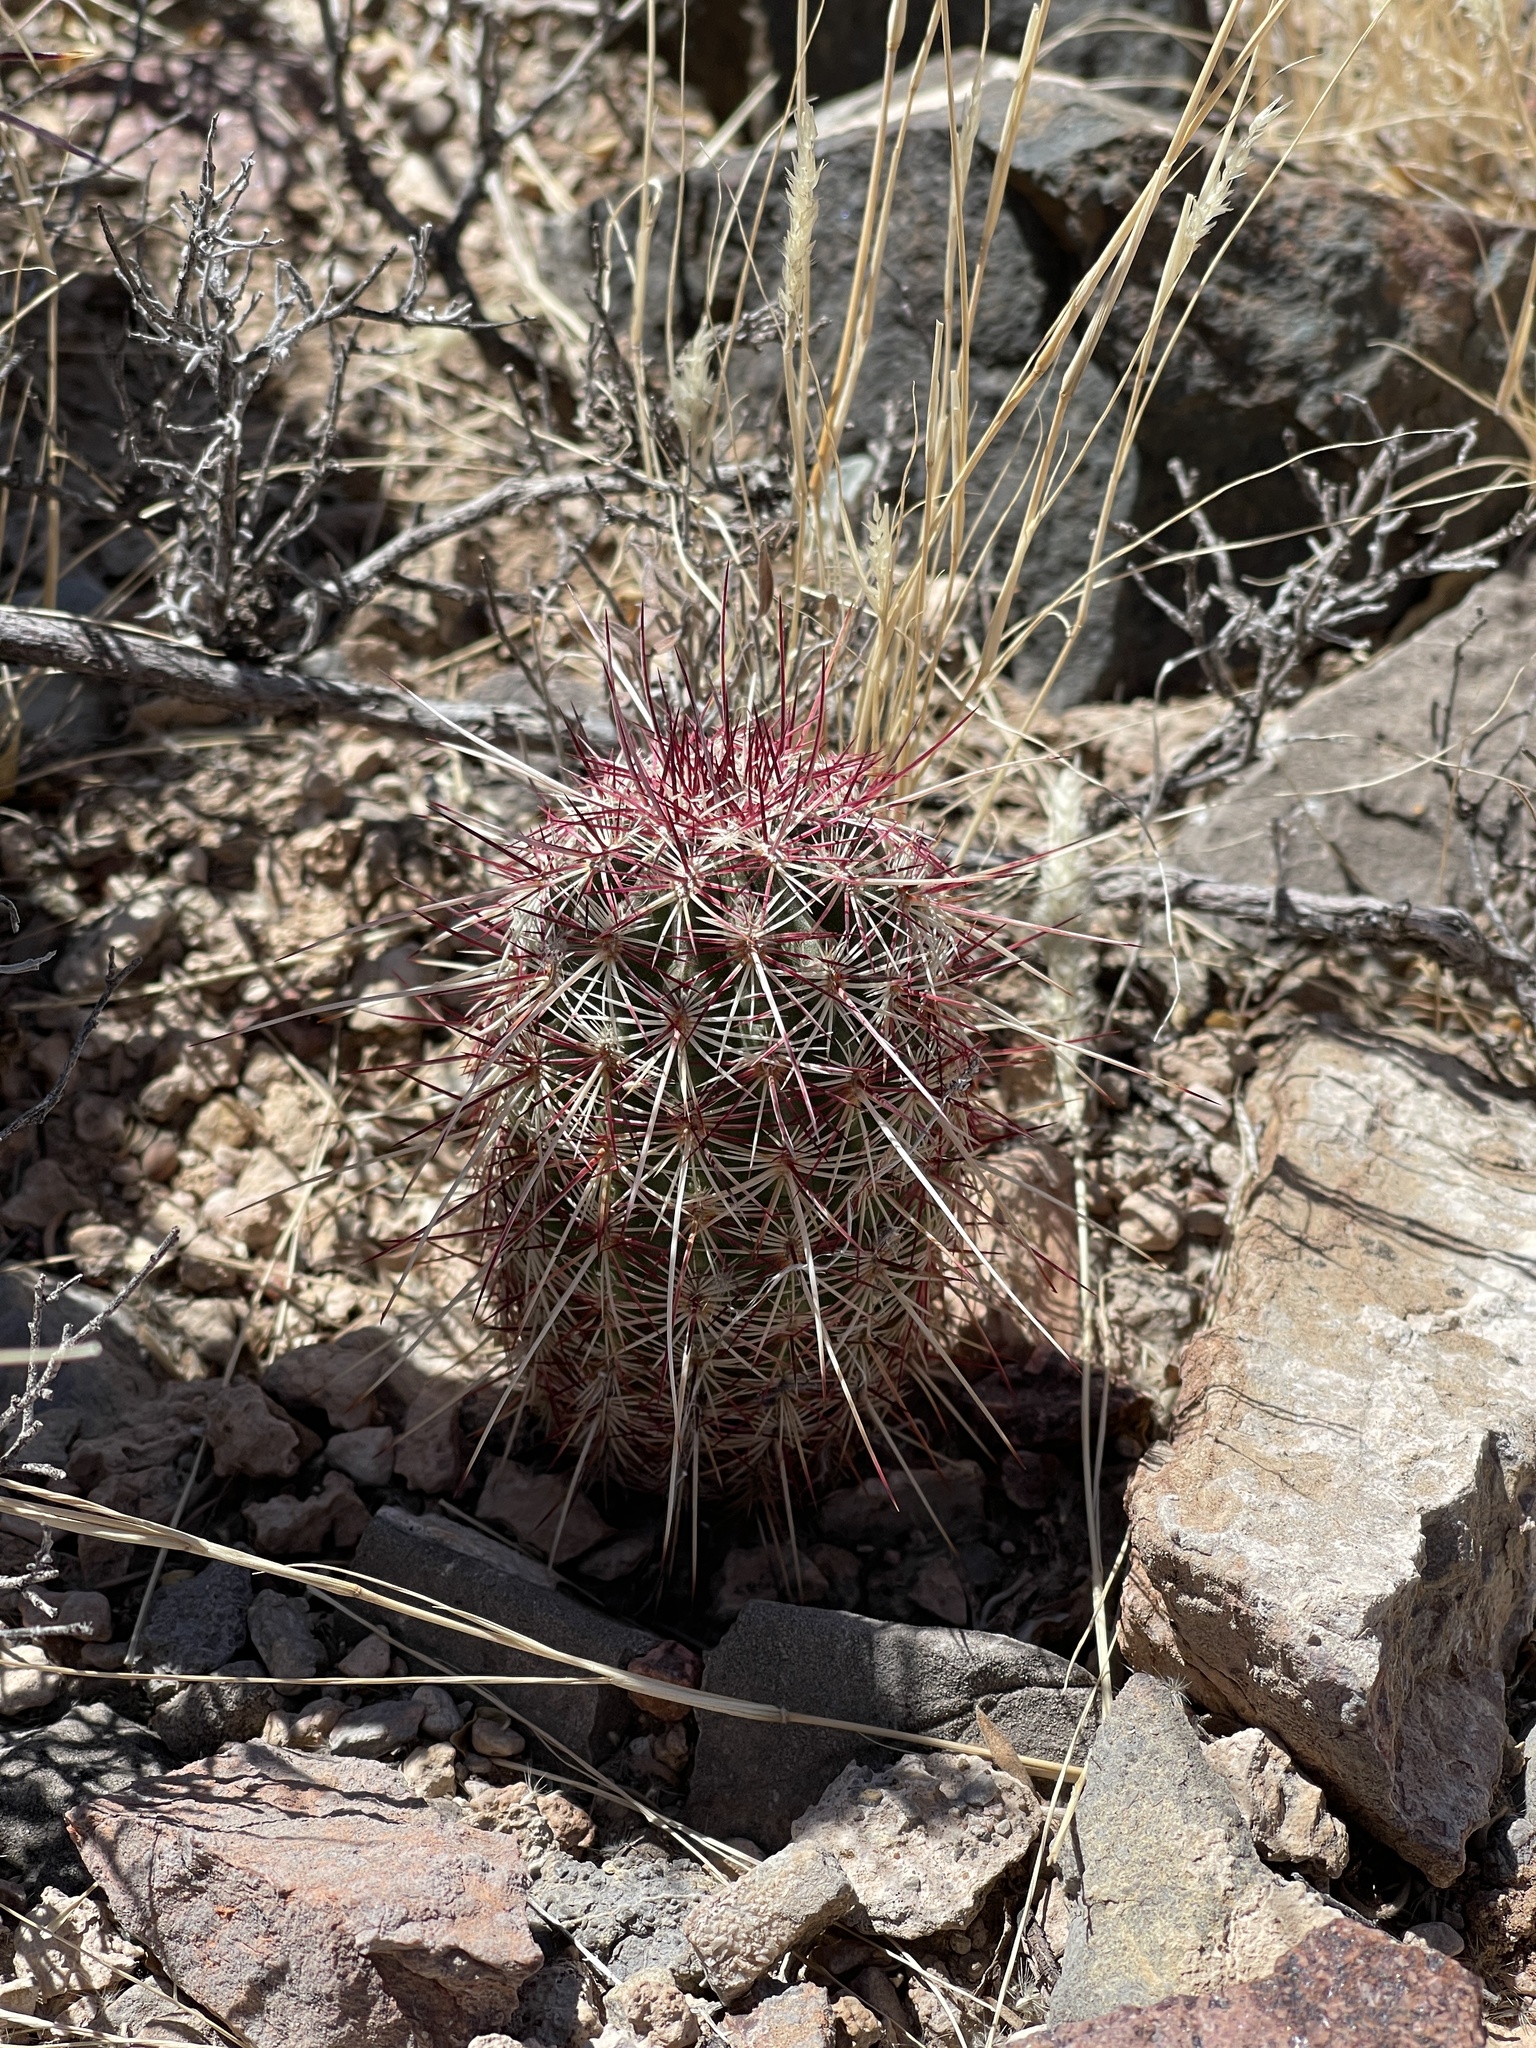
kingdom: Plantae
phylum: Tracheophyta
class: Magnoliopsida
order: Caryophyllales
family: Cactaceae
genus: Echinocereus
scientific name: Echinocereus viridiflorus
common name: Nylon hedgehog cactus
